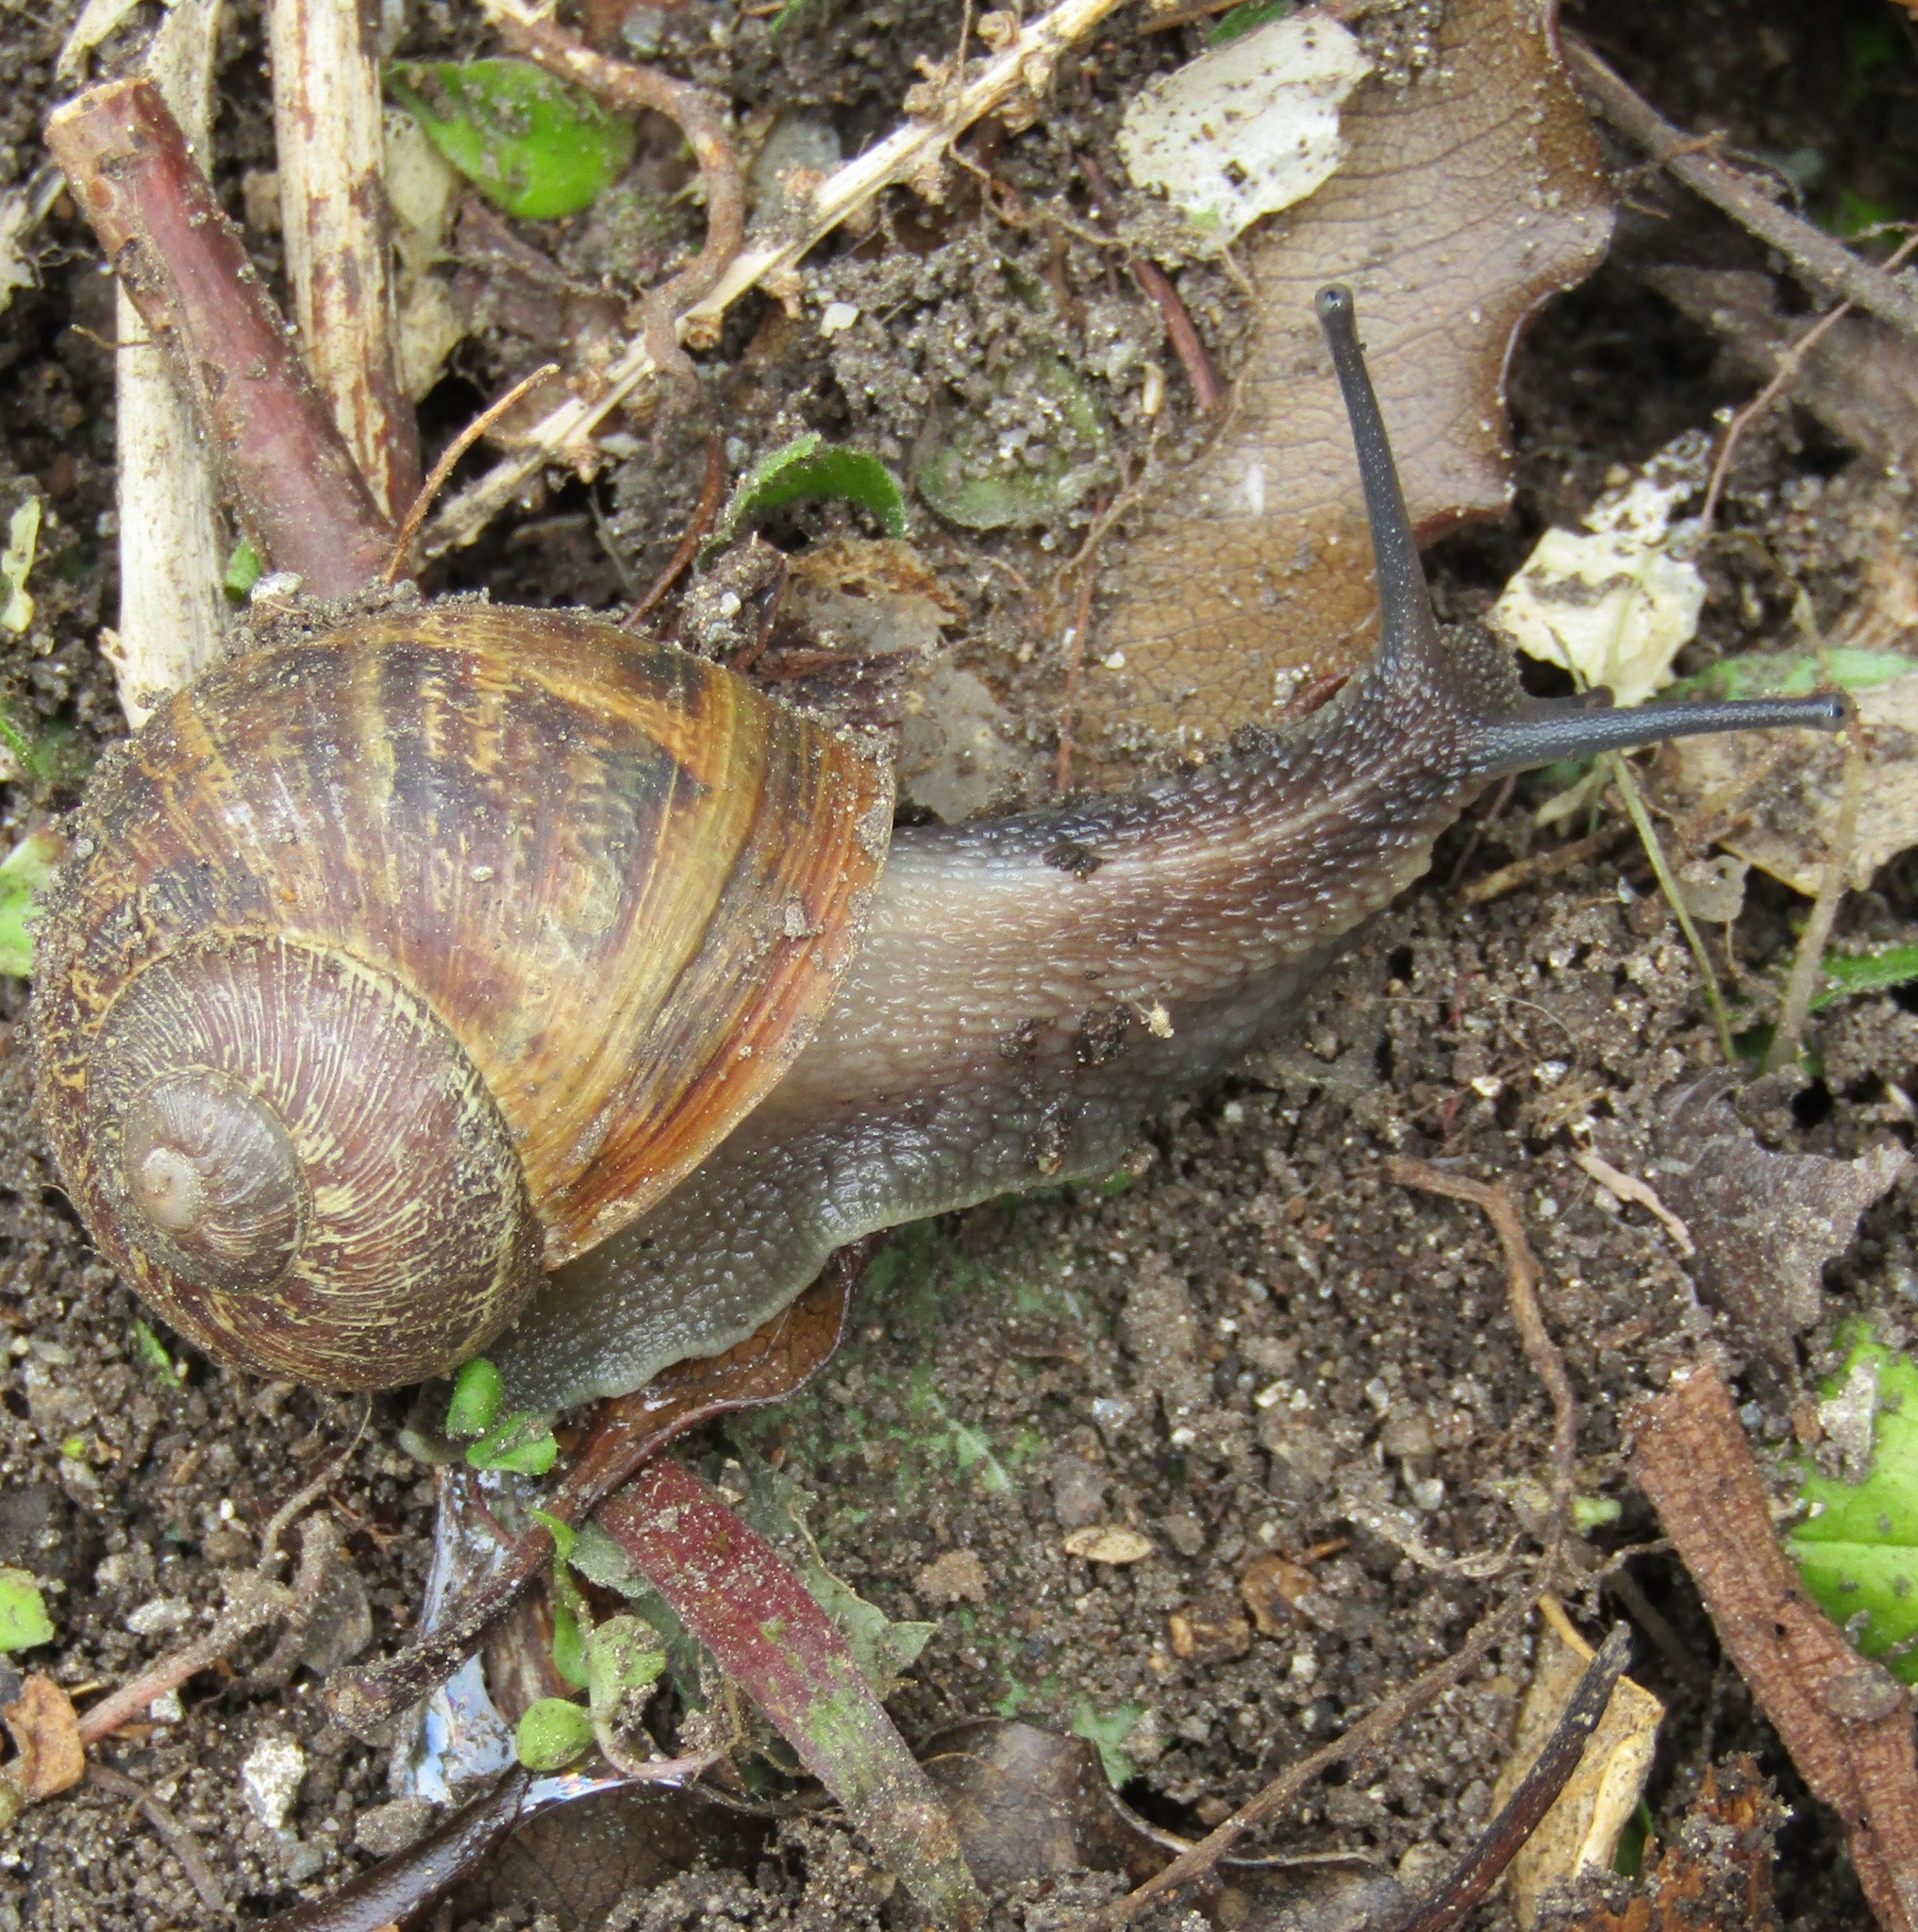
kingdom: Animalia
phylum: Mollusca
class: Gastropoda
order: Stylommatophora
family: Helicidae
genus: Cornu
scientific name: Cornu aspersum
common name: Brown garden snail
